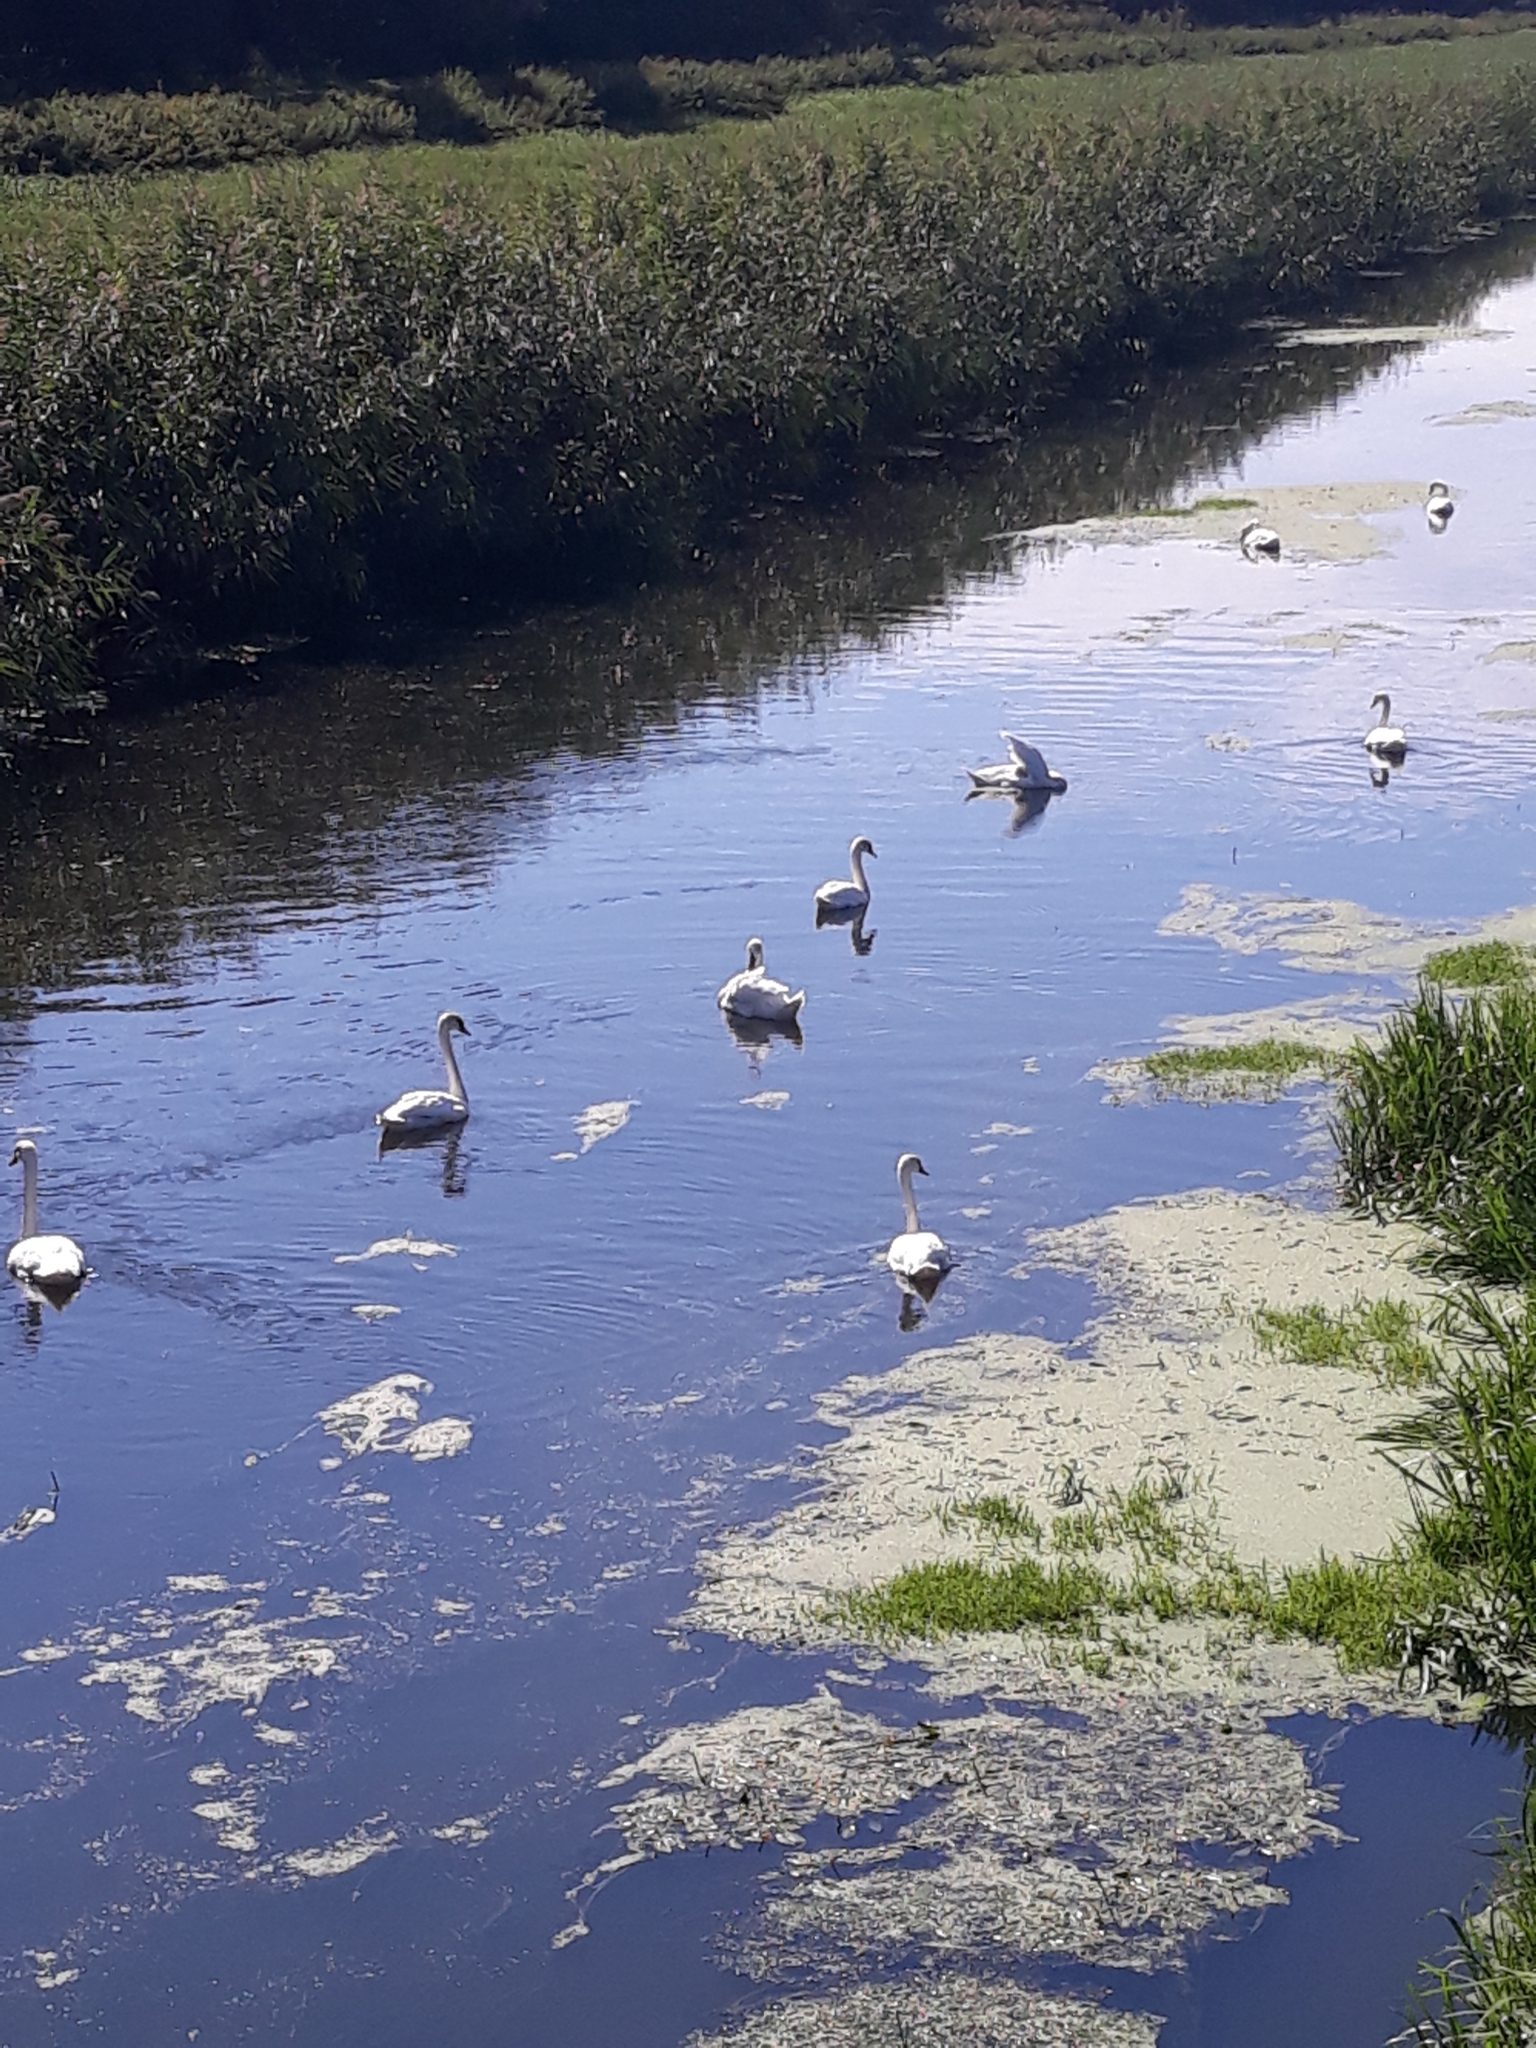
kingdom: Animalia
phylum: Chordata
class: Aves
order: Anseriformes
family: Anatidae
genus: Cygnus
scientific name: Cygnus olor
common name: Mute swan
